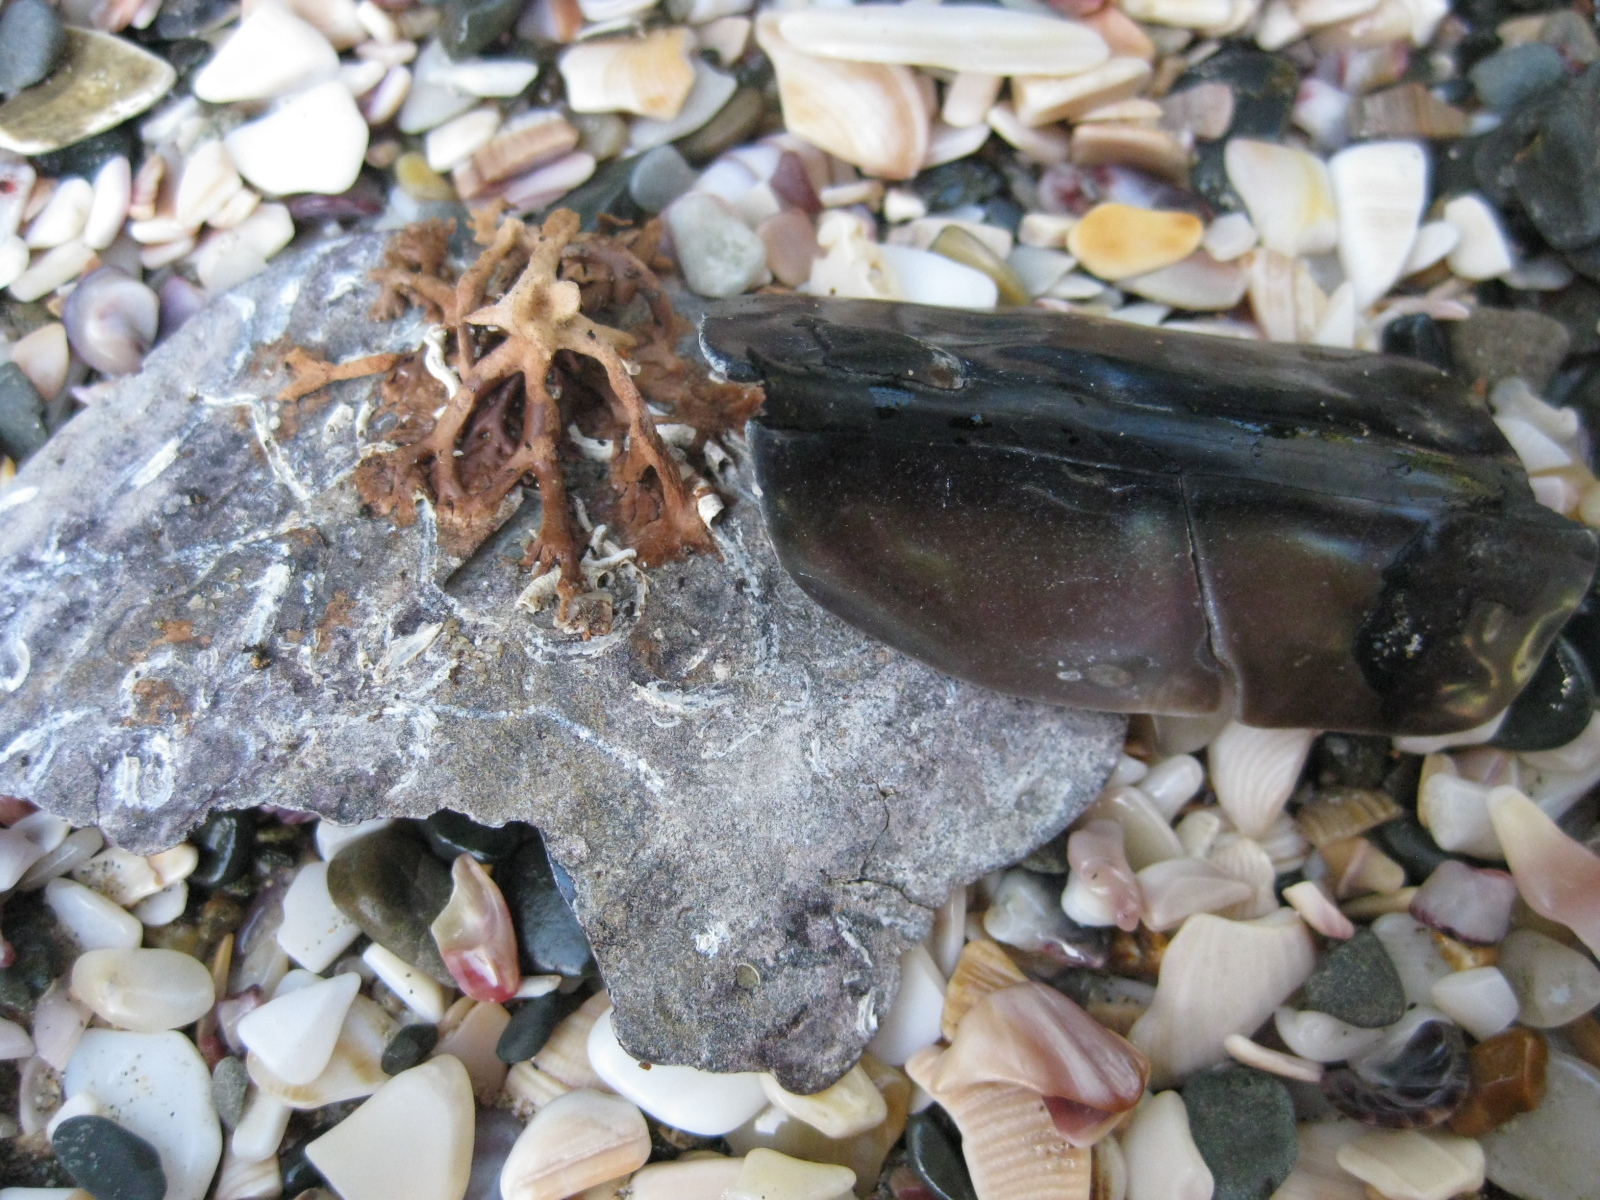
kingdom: Animalia
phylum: Mollusca
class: Bivalvia
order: Ostreida
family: Pinnidae
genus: Atrina
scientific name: Atrina zelandica
